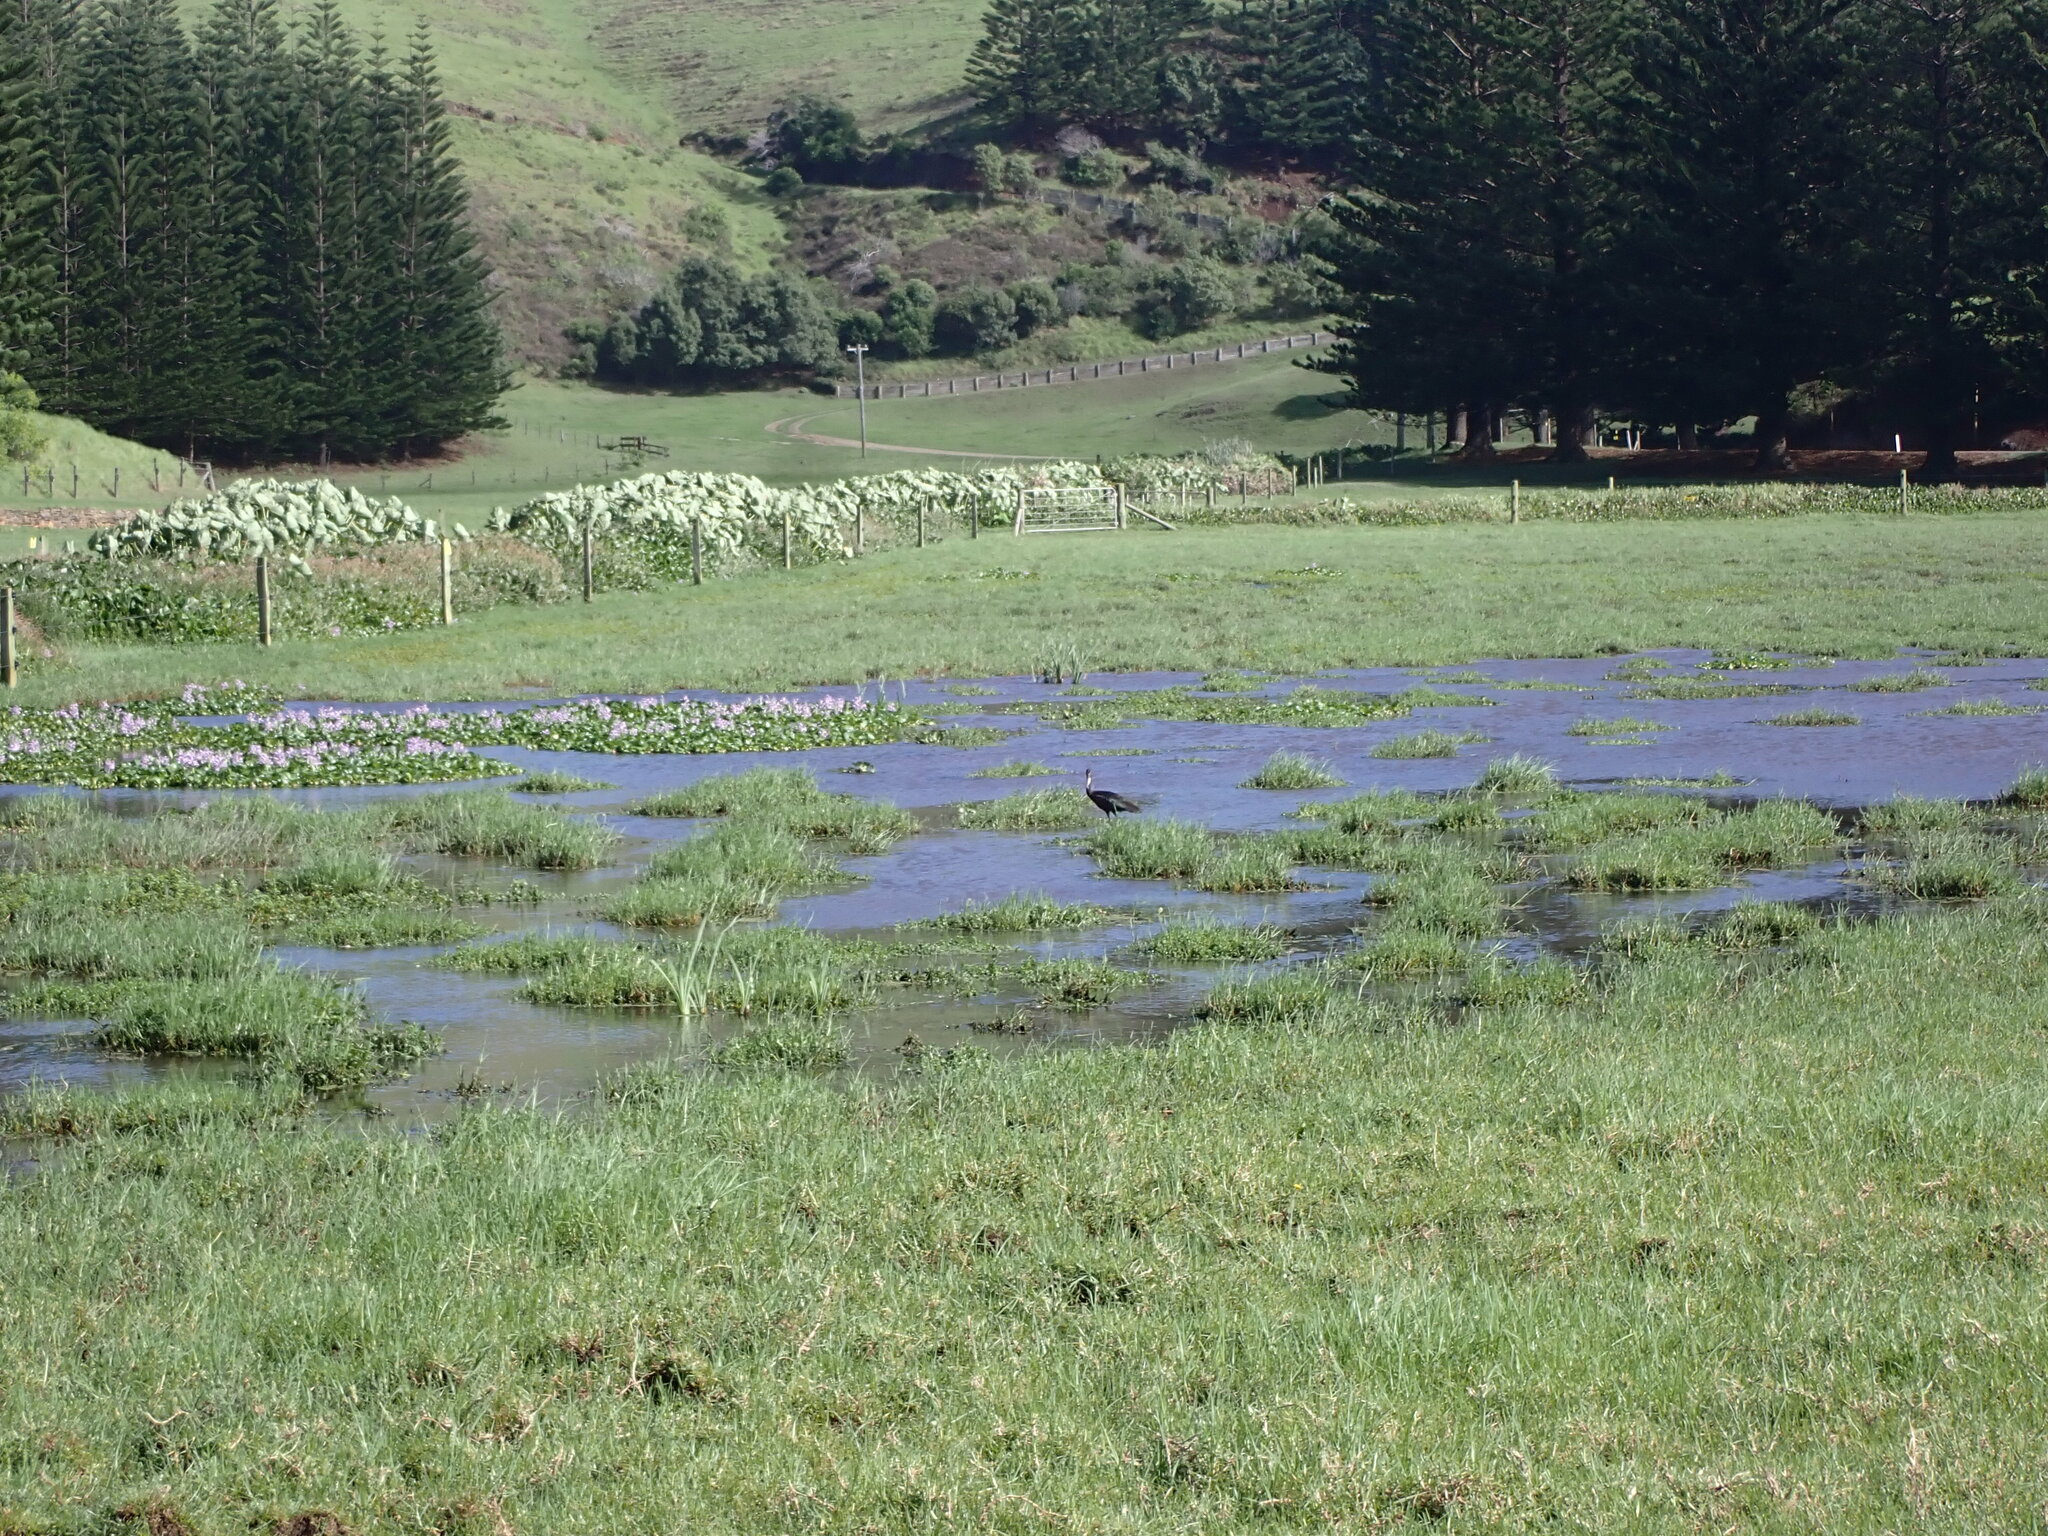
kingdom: Animalia
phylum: Chordata
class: Aves
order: Pelecaniformes
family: Threskiornithidae
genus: Plegadis
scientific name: Plegadis falcinellus
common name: Glossy ibis
